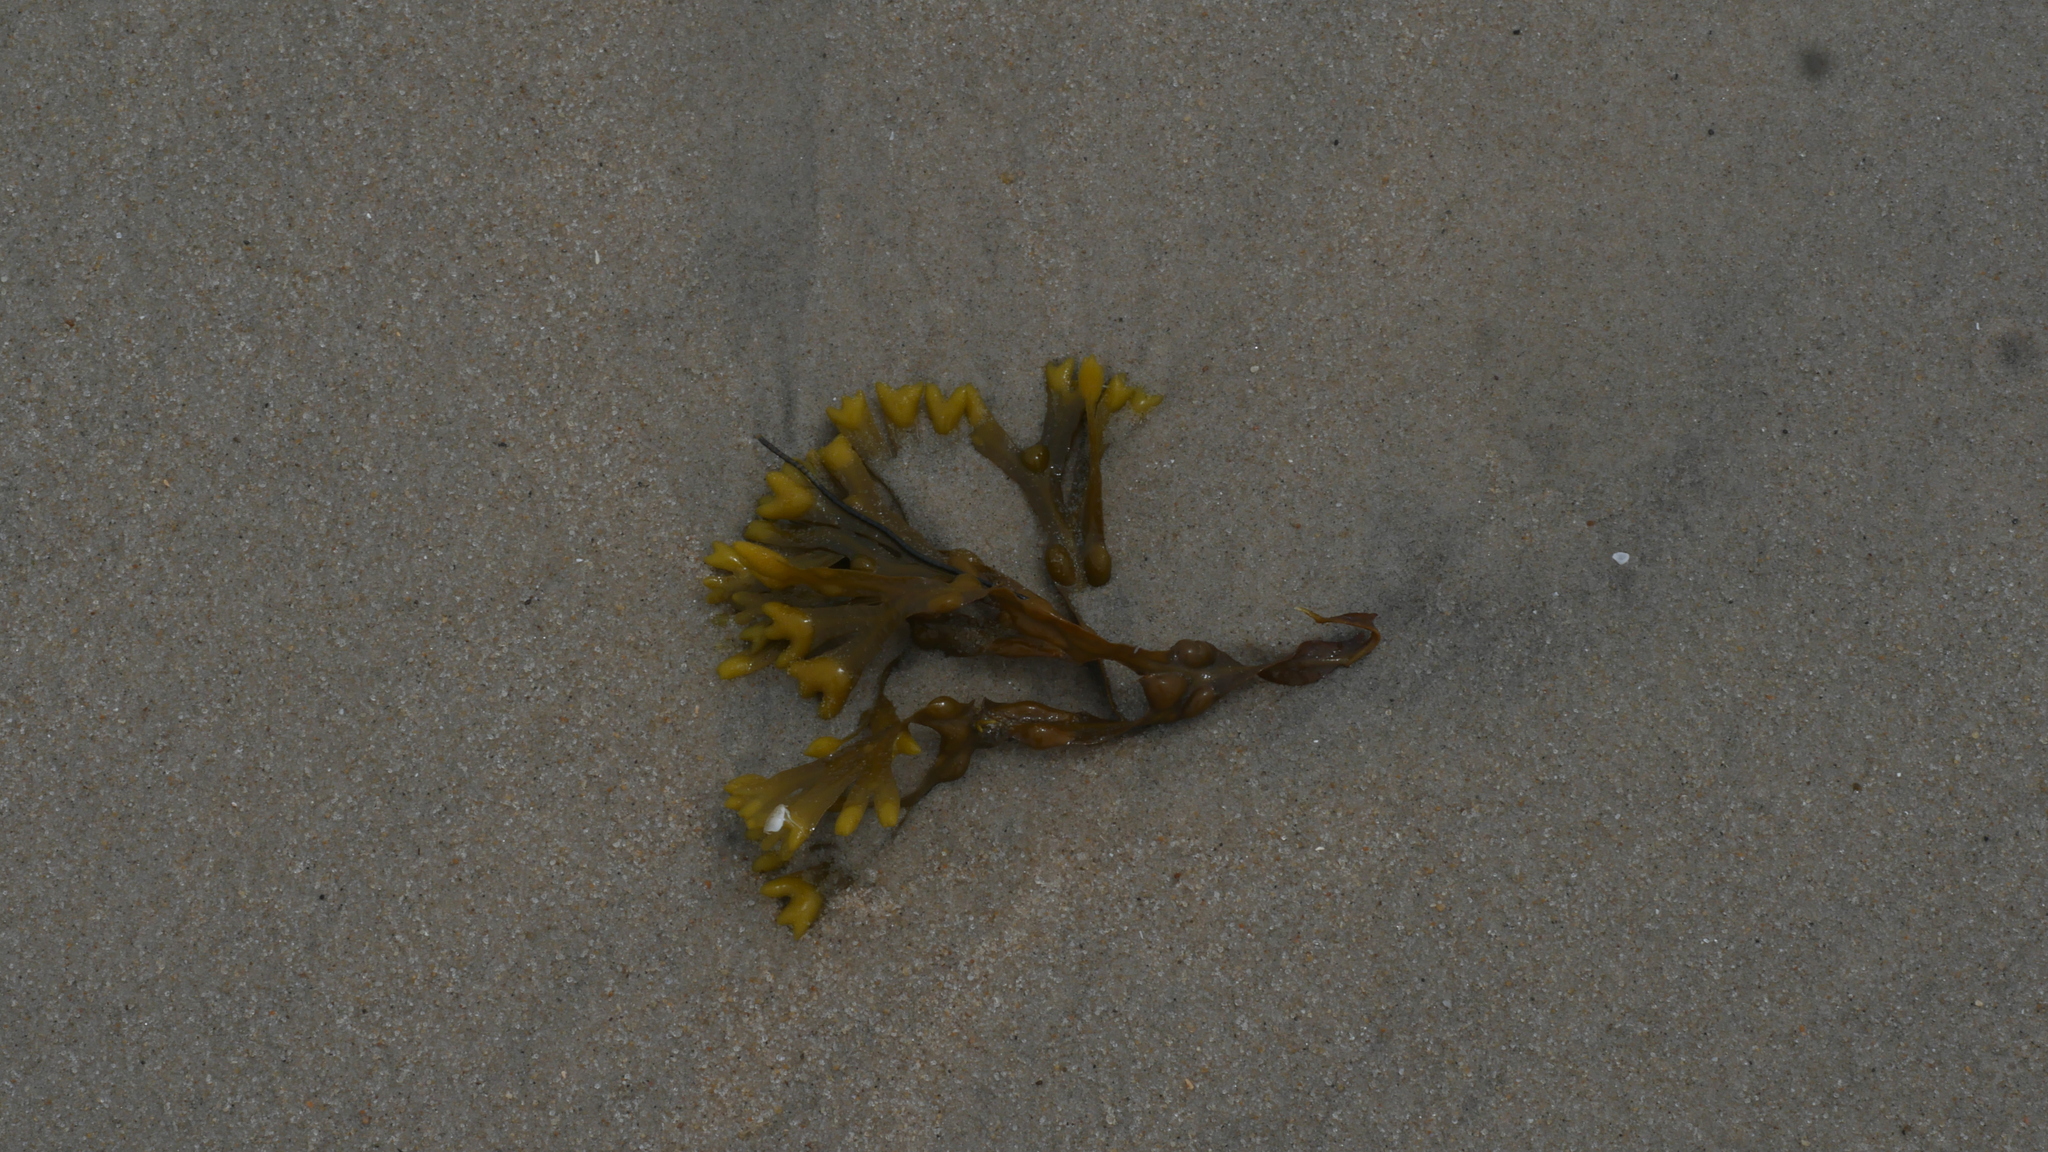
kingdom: Chromista
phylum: Ochrophyta
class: Phaeophyceae
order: Fucales
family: Fucaceae
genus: Fucus
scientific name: Fucus vesiculosus
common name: Bladder wrack
